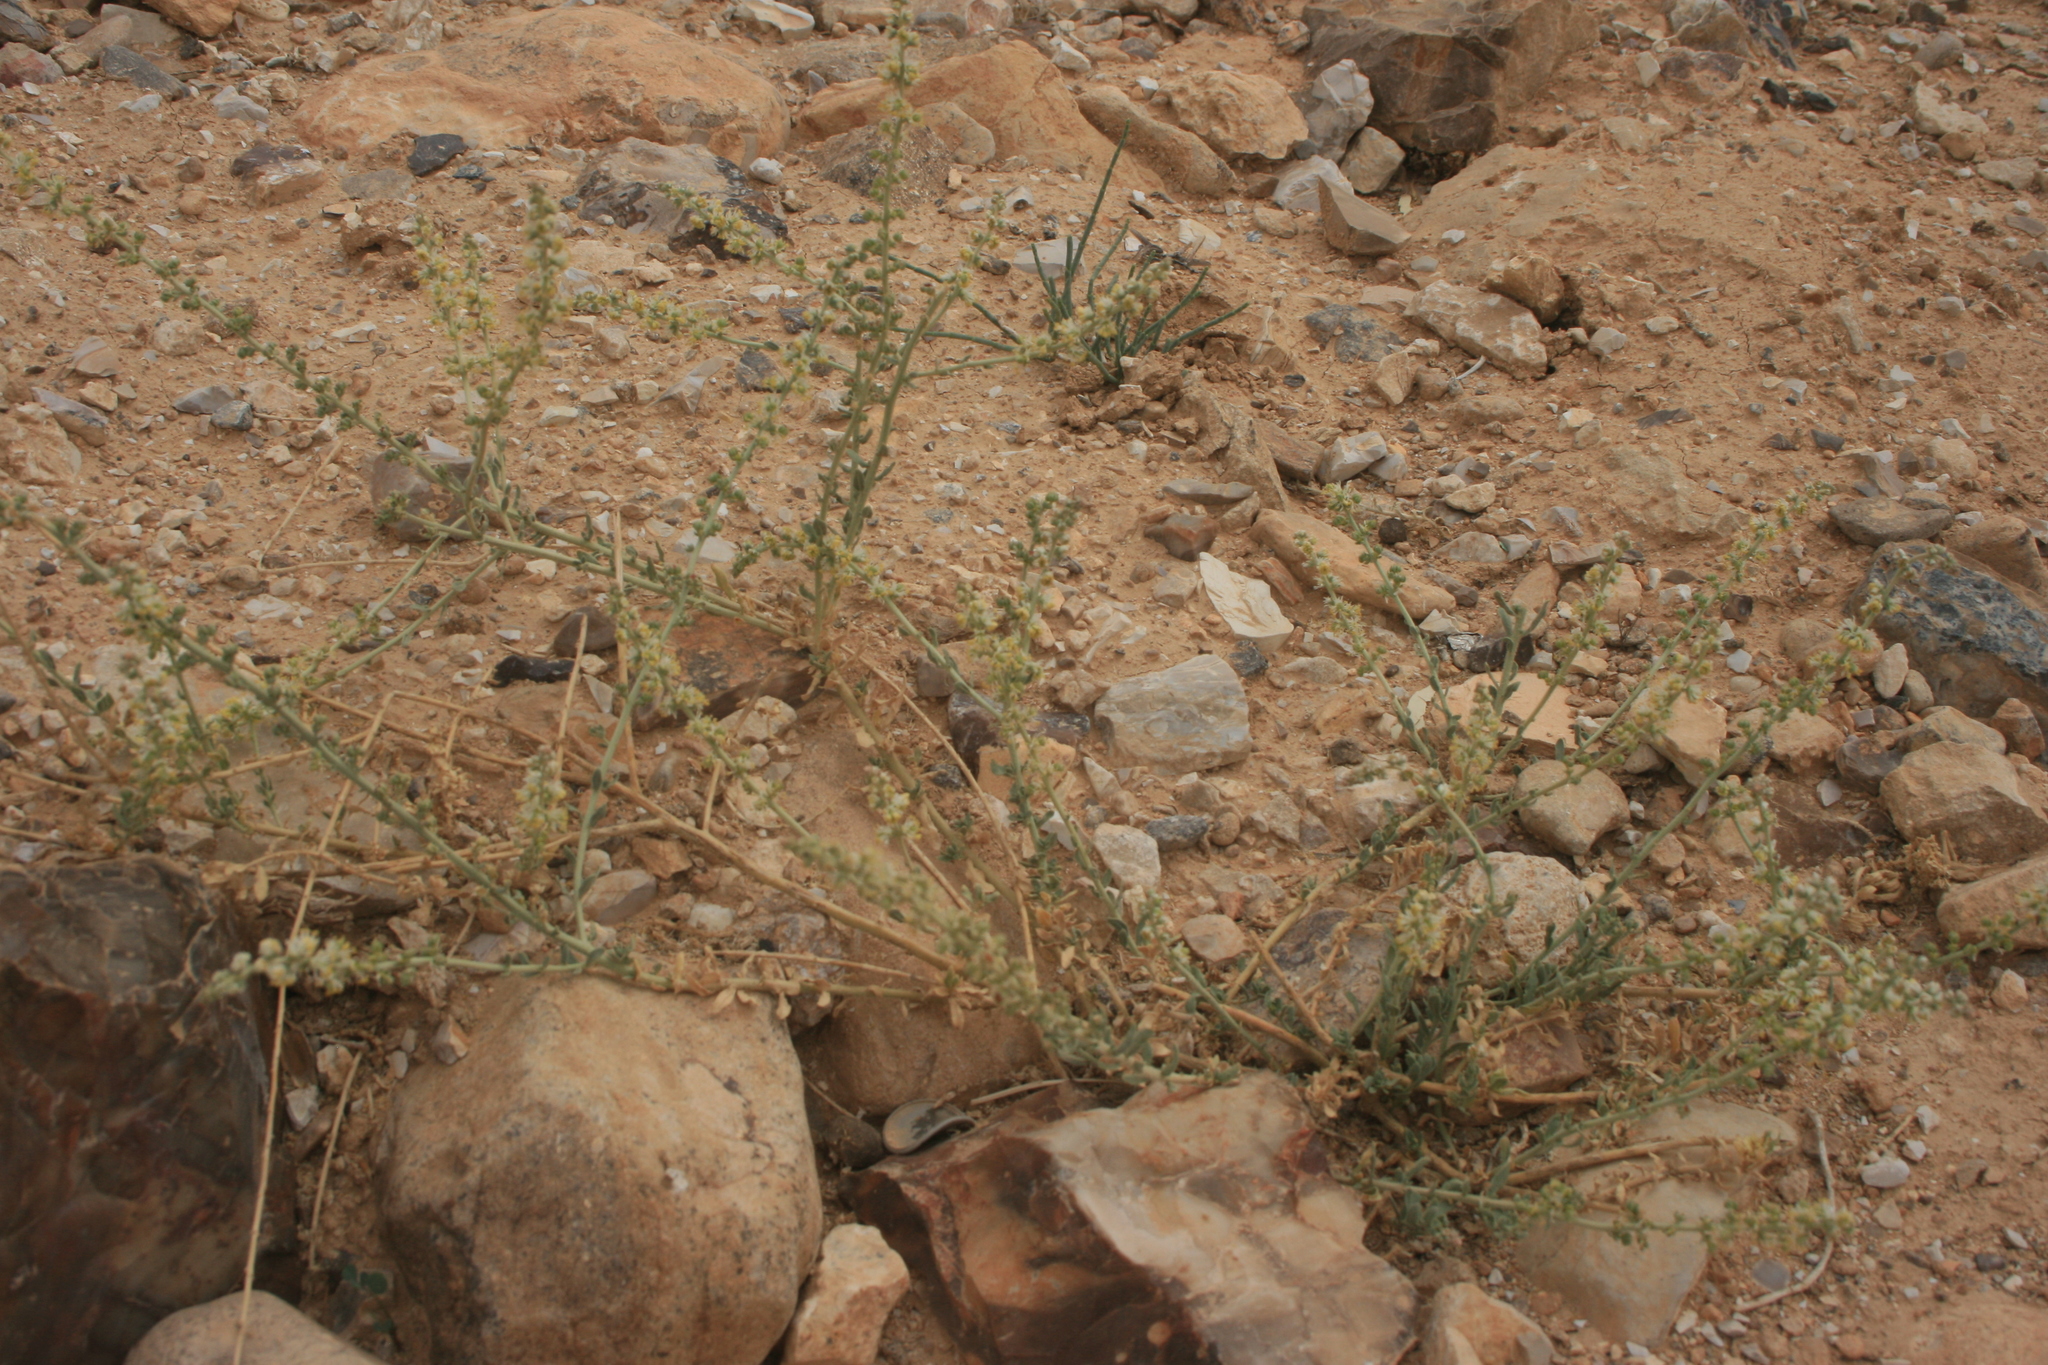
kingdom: Plantae
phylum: Tracheophyta
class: Magnoliopsida
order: Brassicales
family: Resedaceae
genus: Caylusea
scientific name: Caylusea hexagyna
